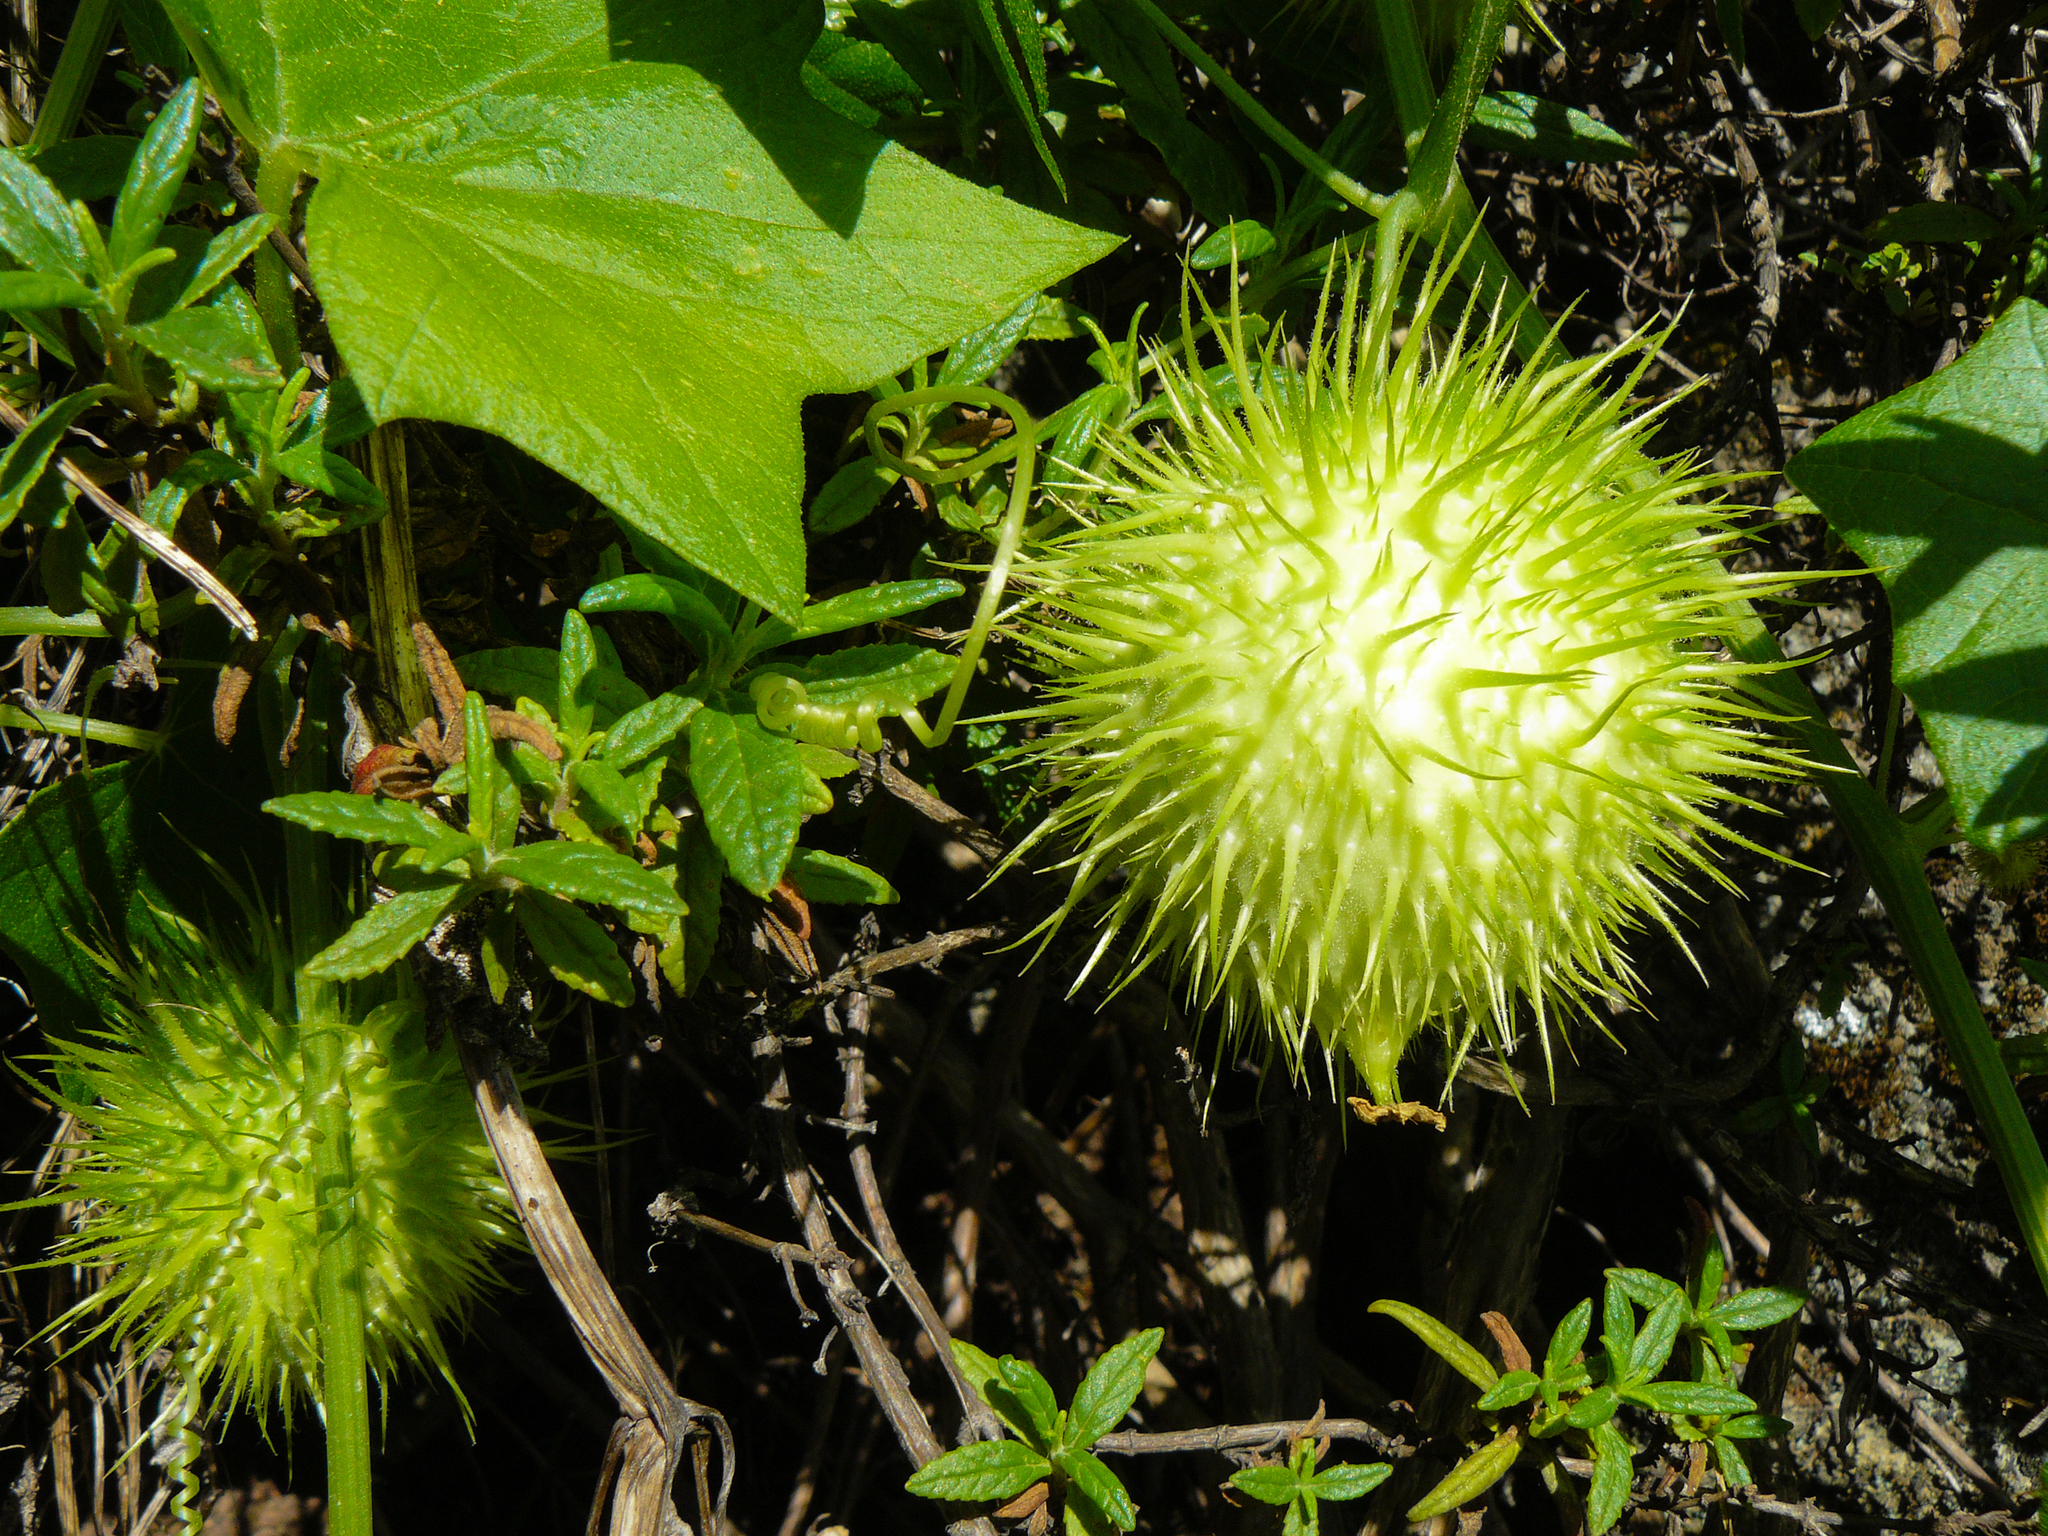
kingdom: Plantae
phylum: Tracheophyta
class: Magnoliopsida
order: Cucurbitales
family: Cucurbitaceae
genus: Marah
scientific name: Marah fabacea
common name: California manroot
